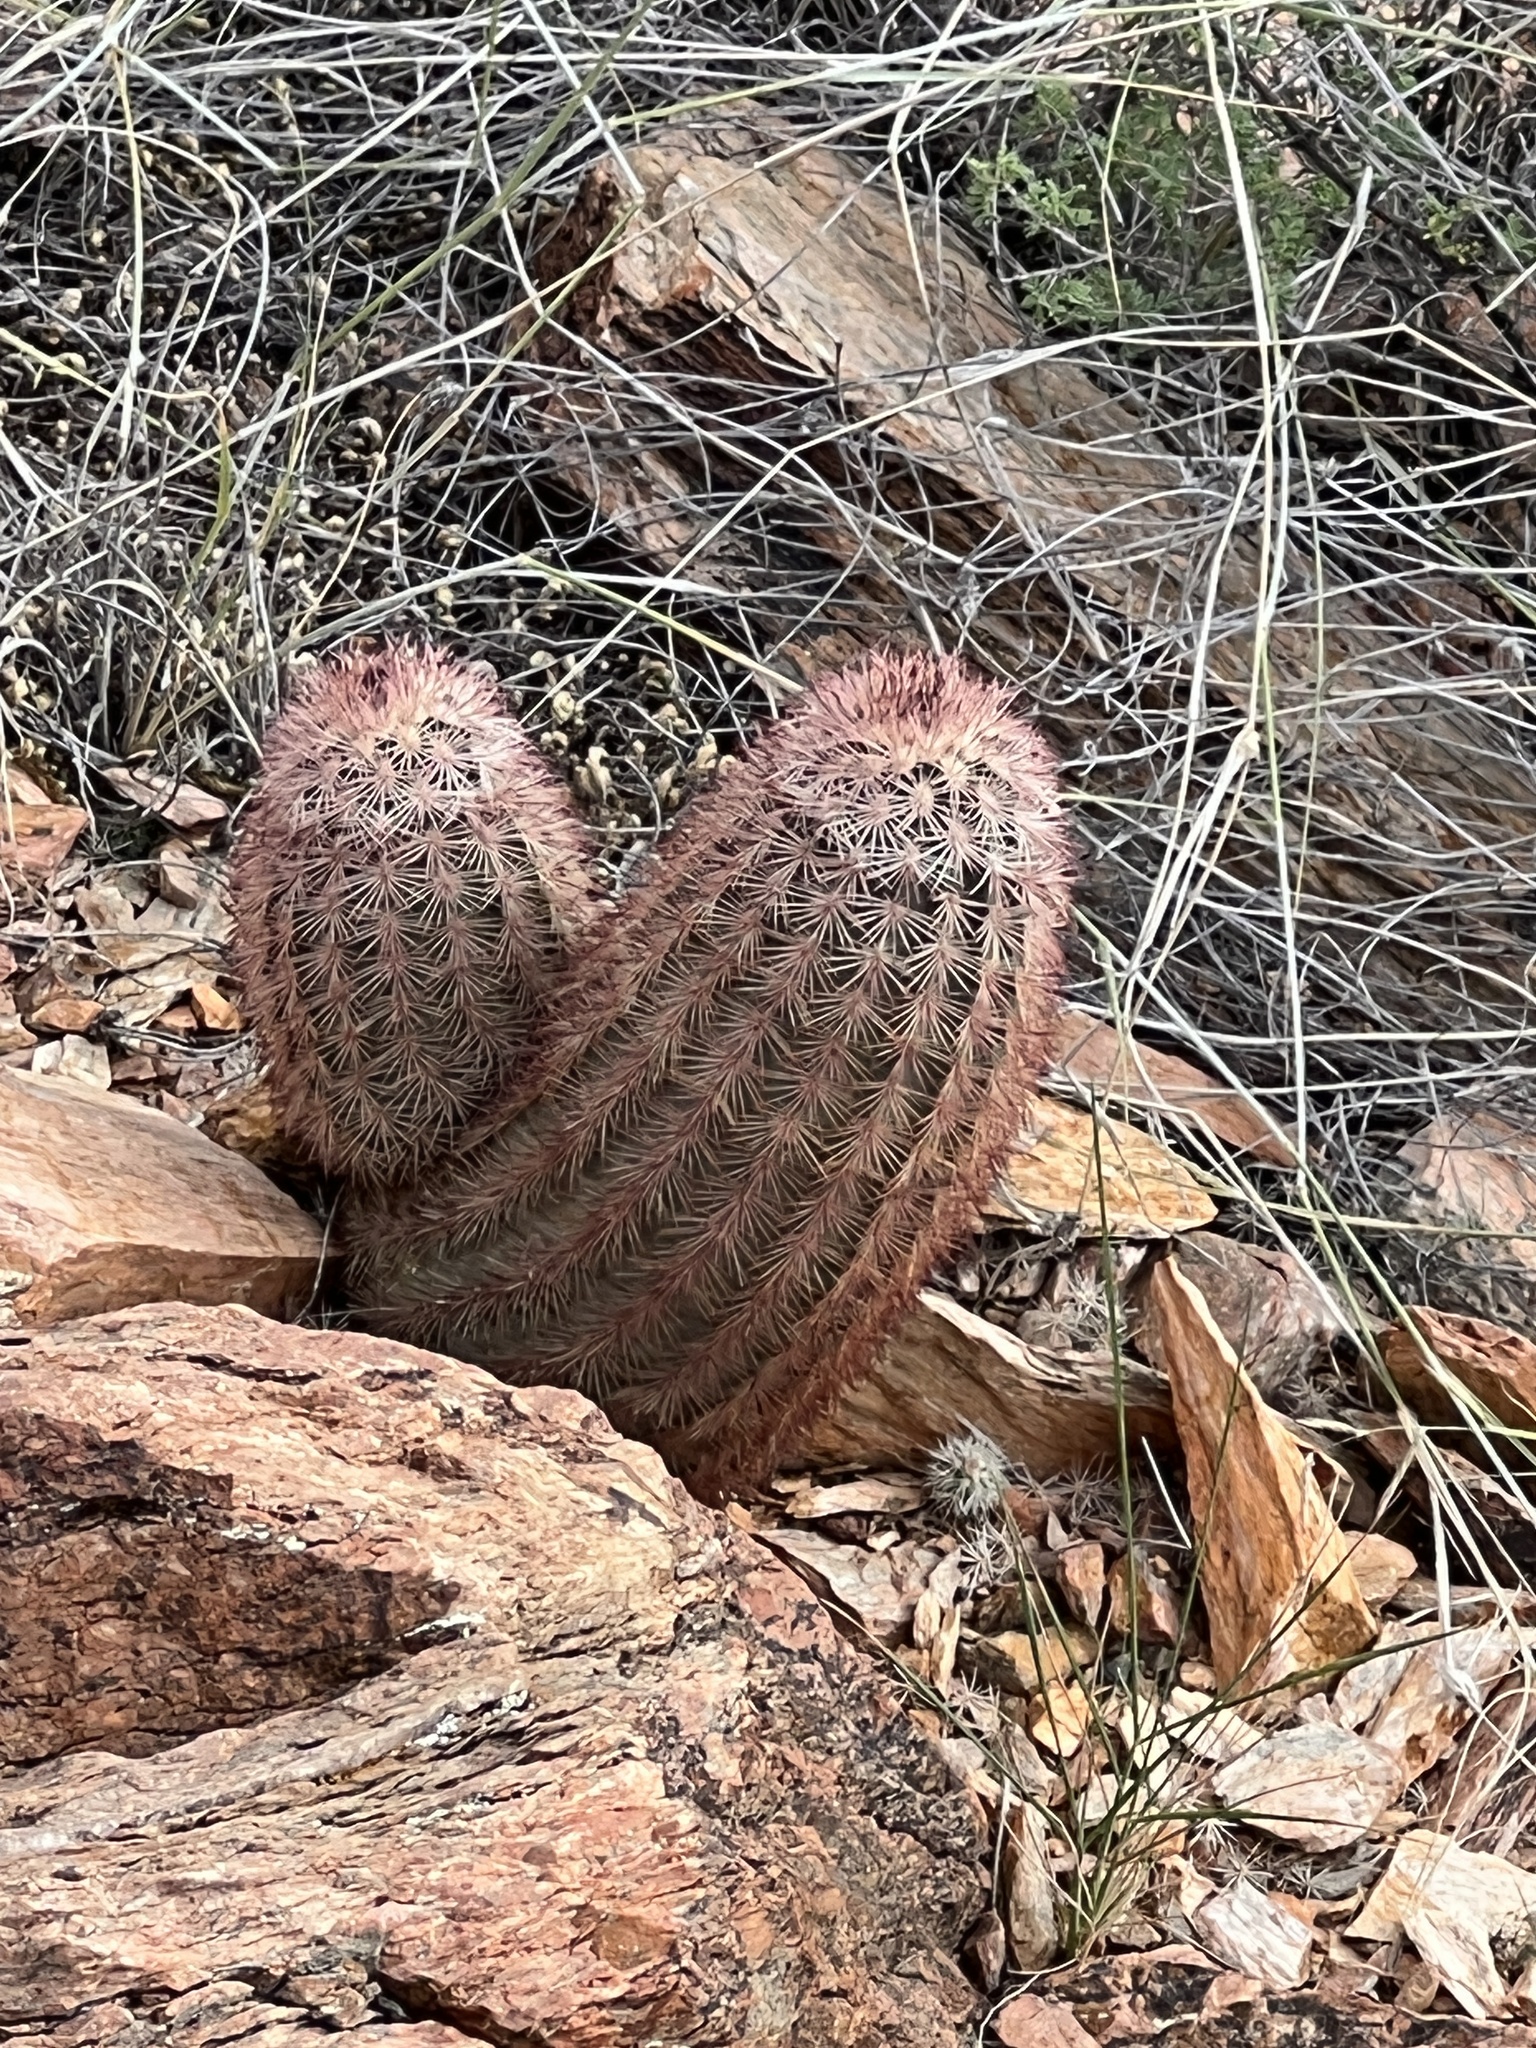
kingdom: Plantae
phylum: Tracheophyta
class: Magnoliopsida
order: Caryophyllales
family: Cactaceae
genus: Echinocereus
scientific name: Echinocereus dasyacanthus
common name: Spiny hedgehog cactus
